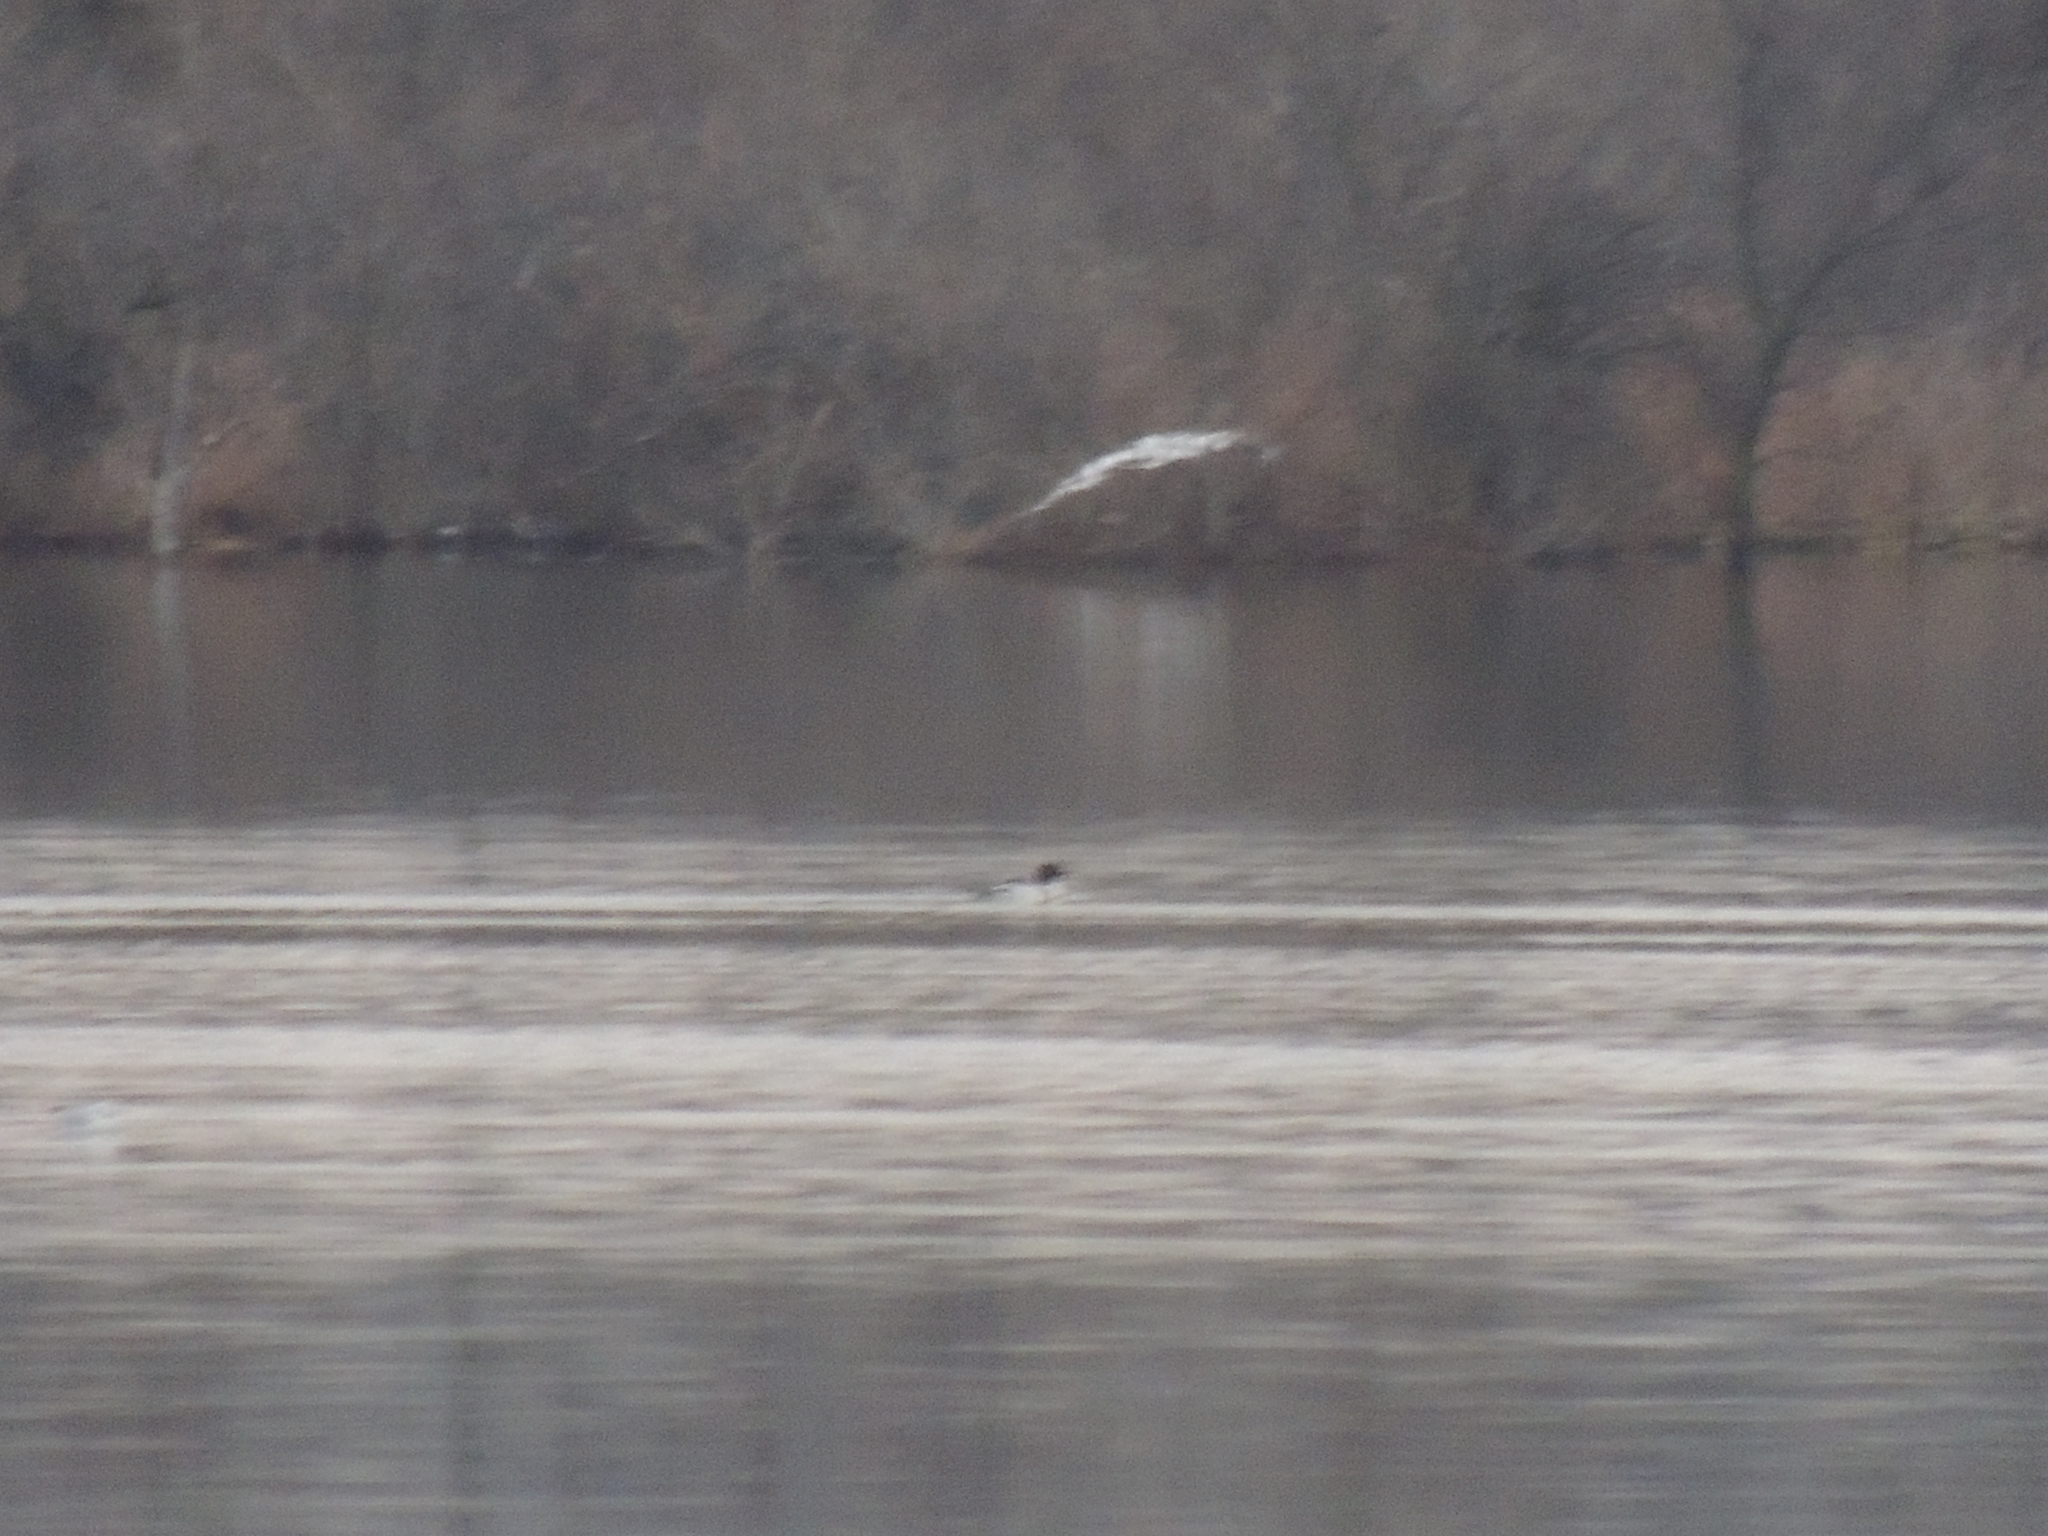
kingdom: Animalia
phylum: Chordata
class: Aves
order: Anseriformes
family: Anatidae
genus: Mergus
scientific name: Mergus merganser
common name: Common merganser
